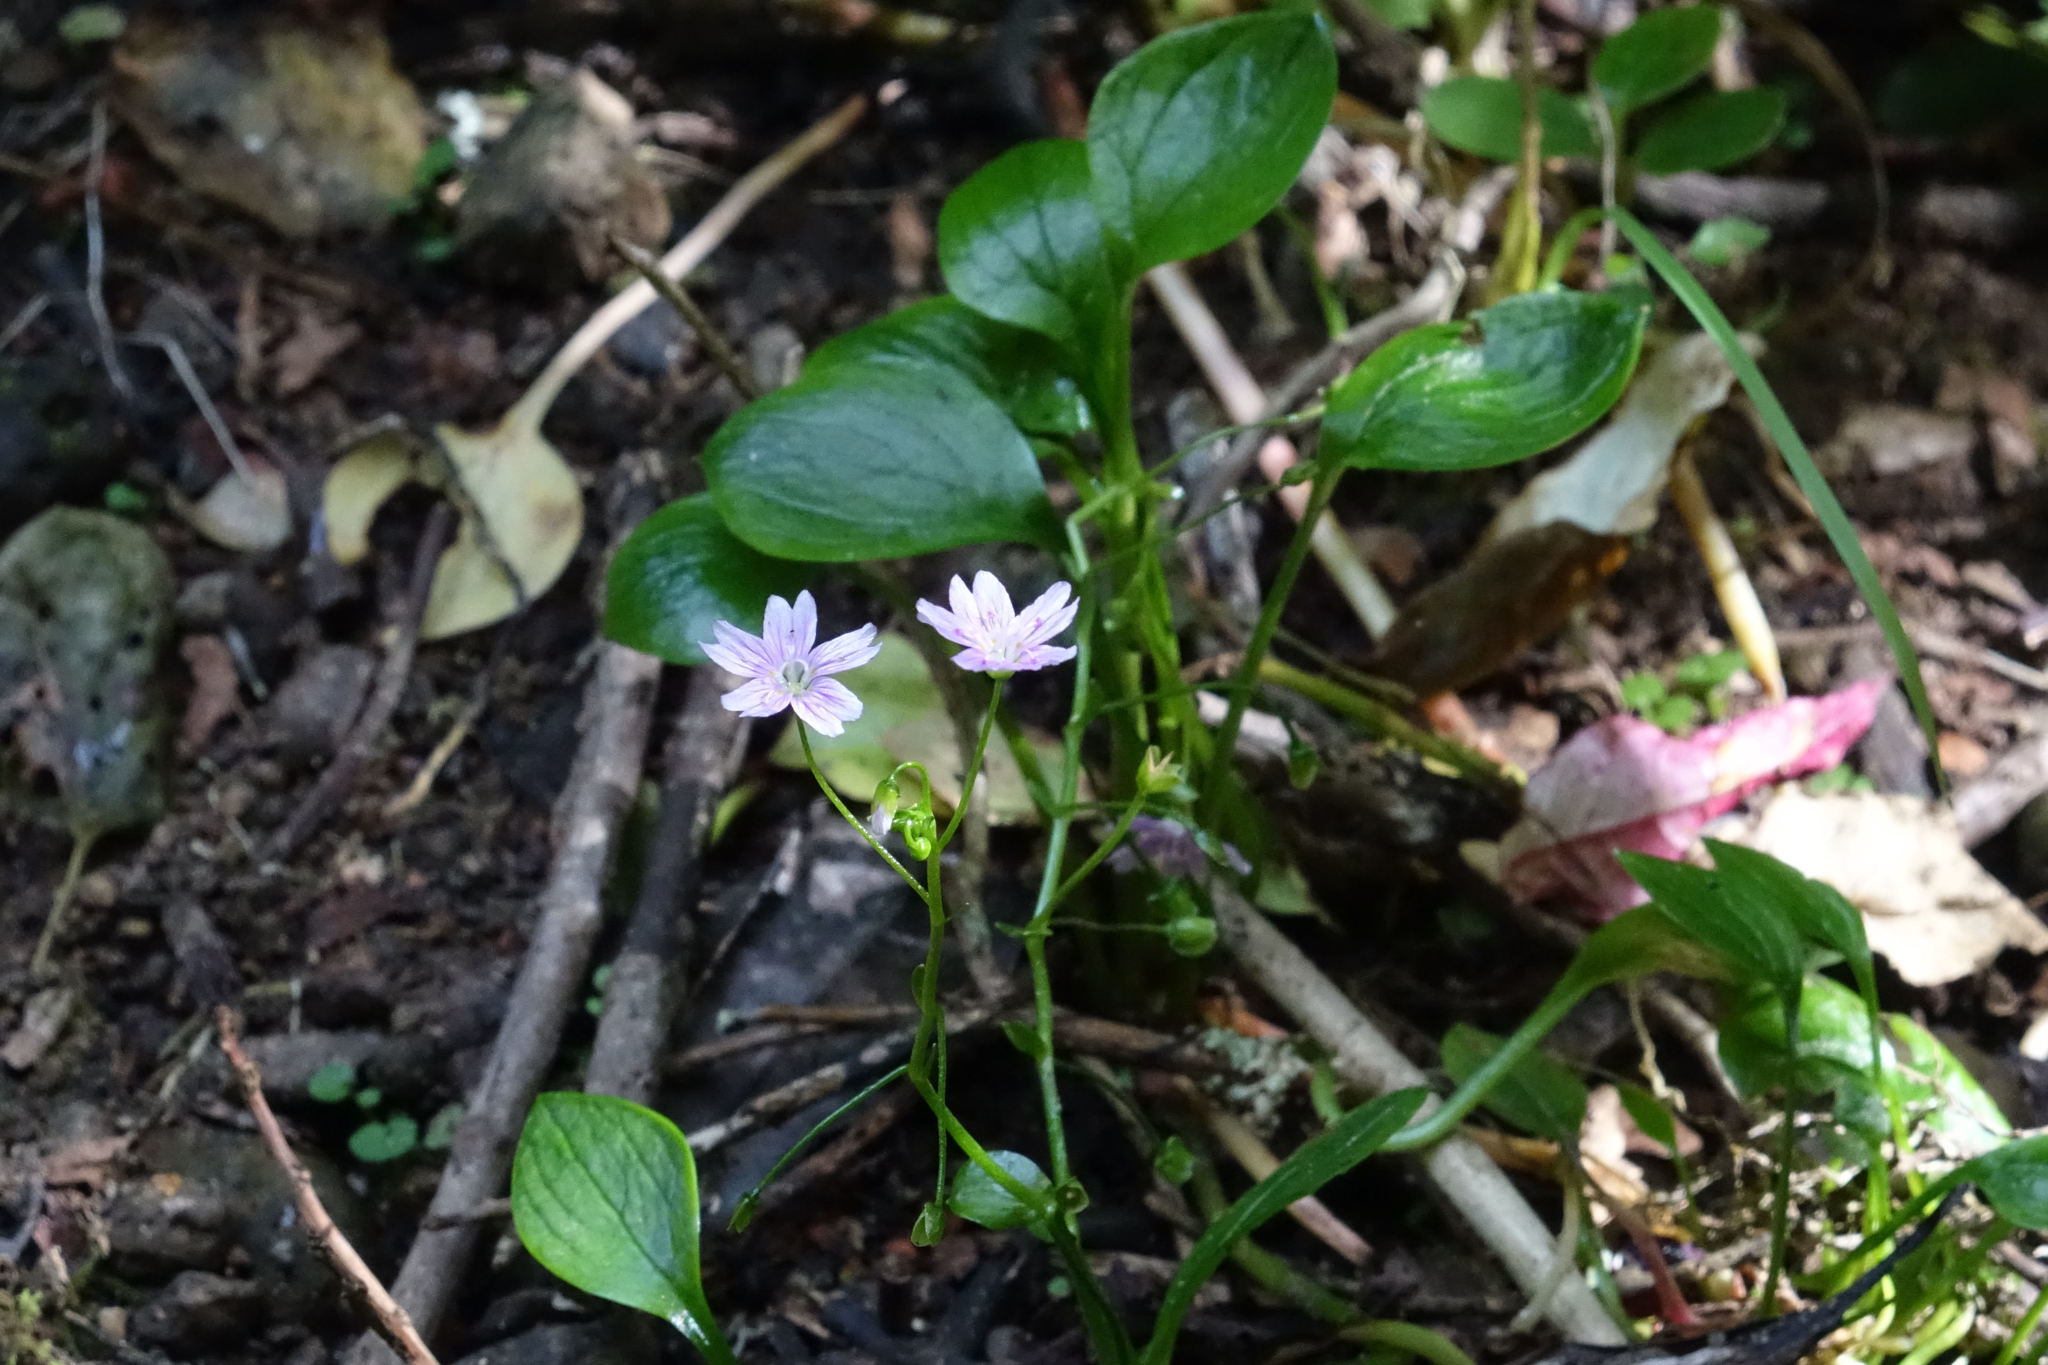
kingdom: Plantae
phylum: Tracheophyta
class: Magnoliopsida
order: Caryophyllales
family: Montiaceae
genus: Claytonia
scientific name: Claytonia sibirica
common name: Pink purslane
